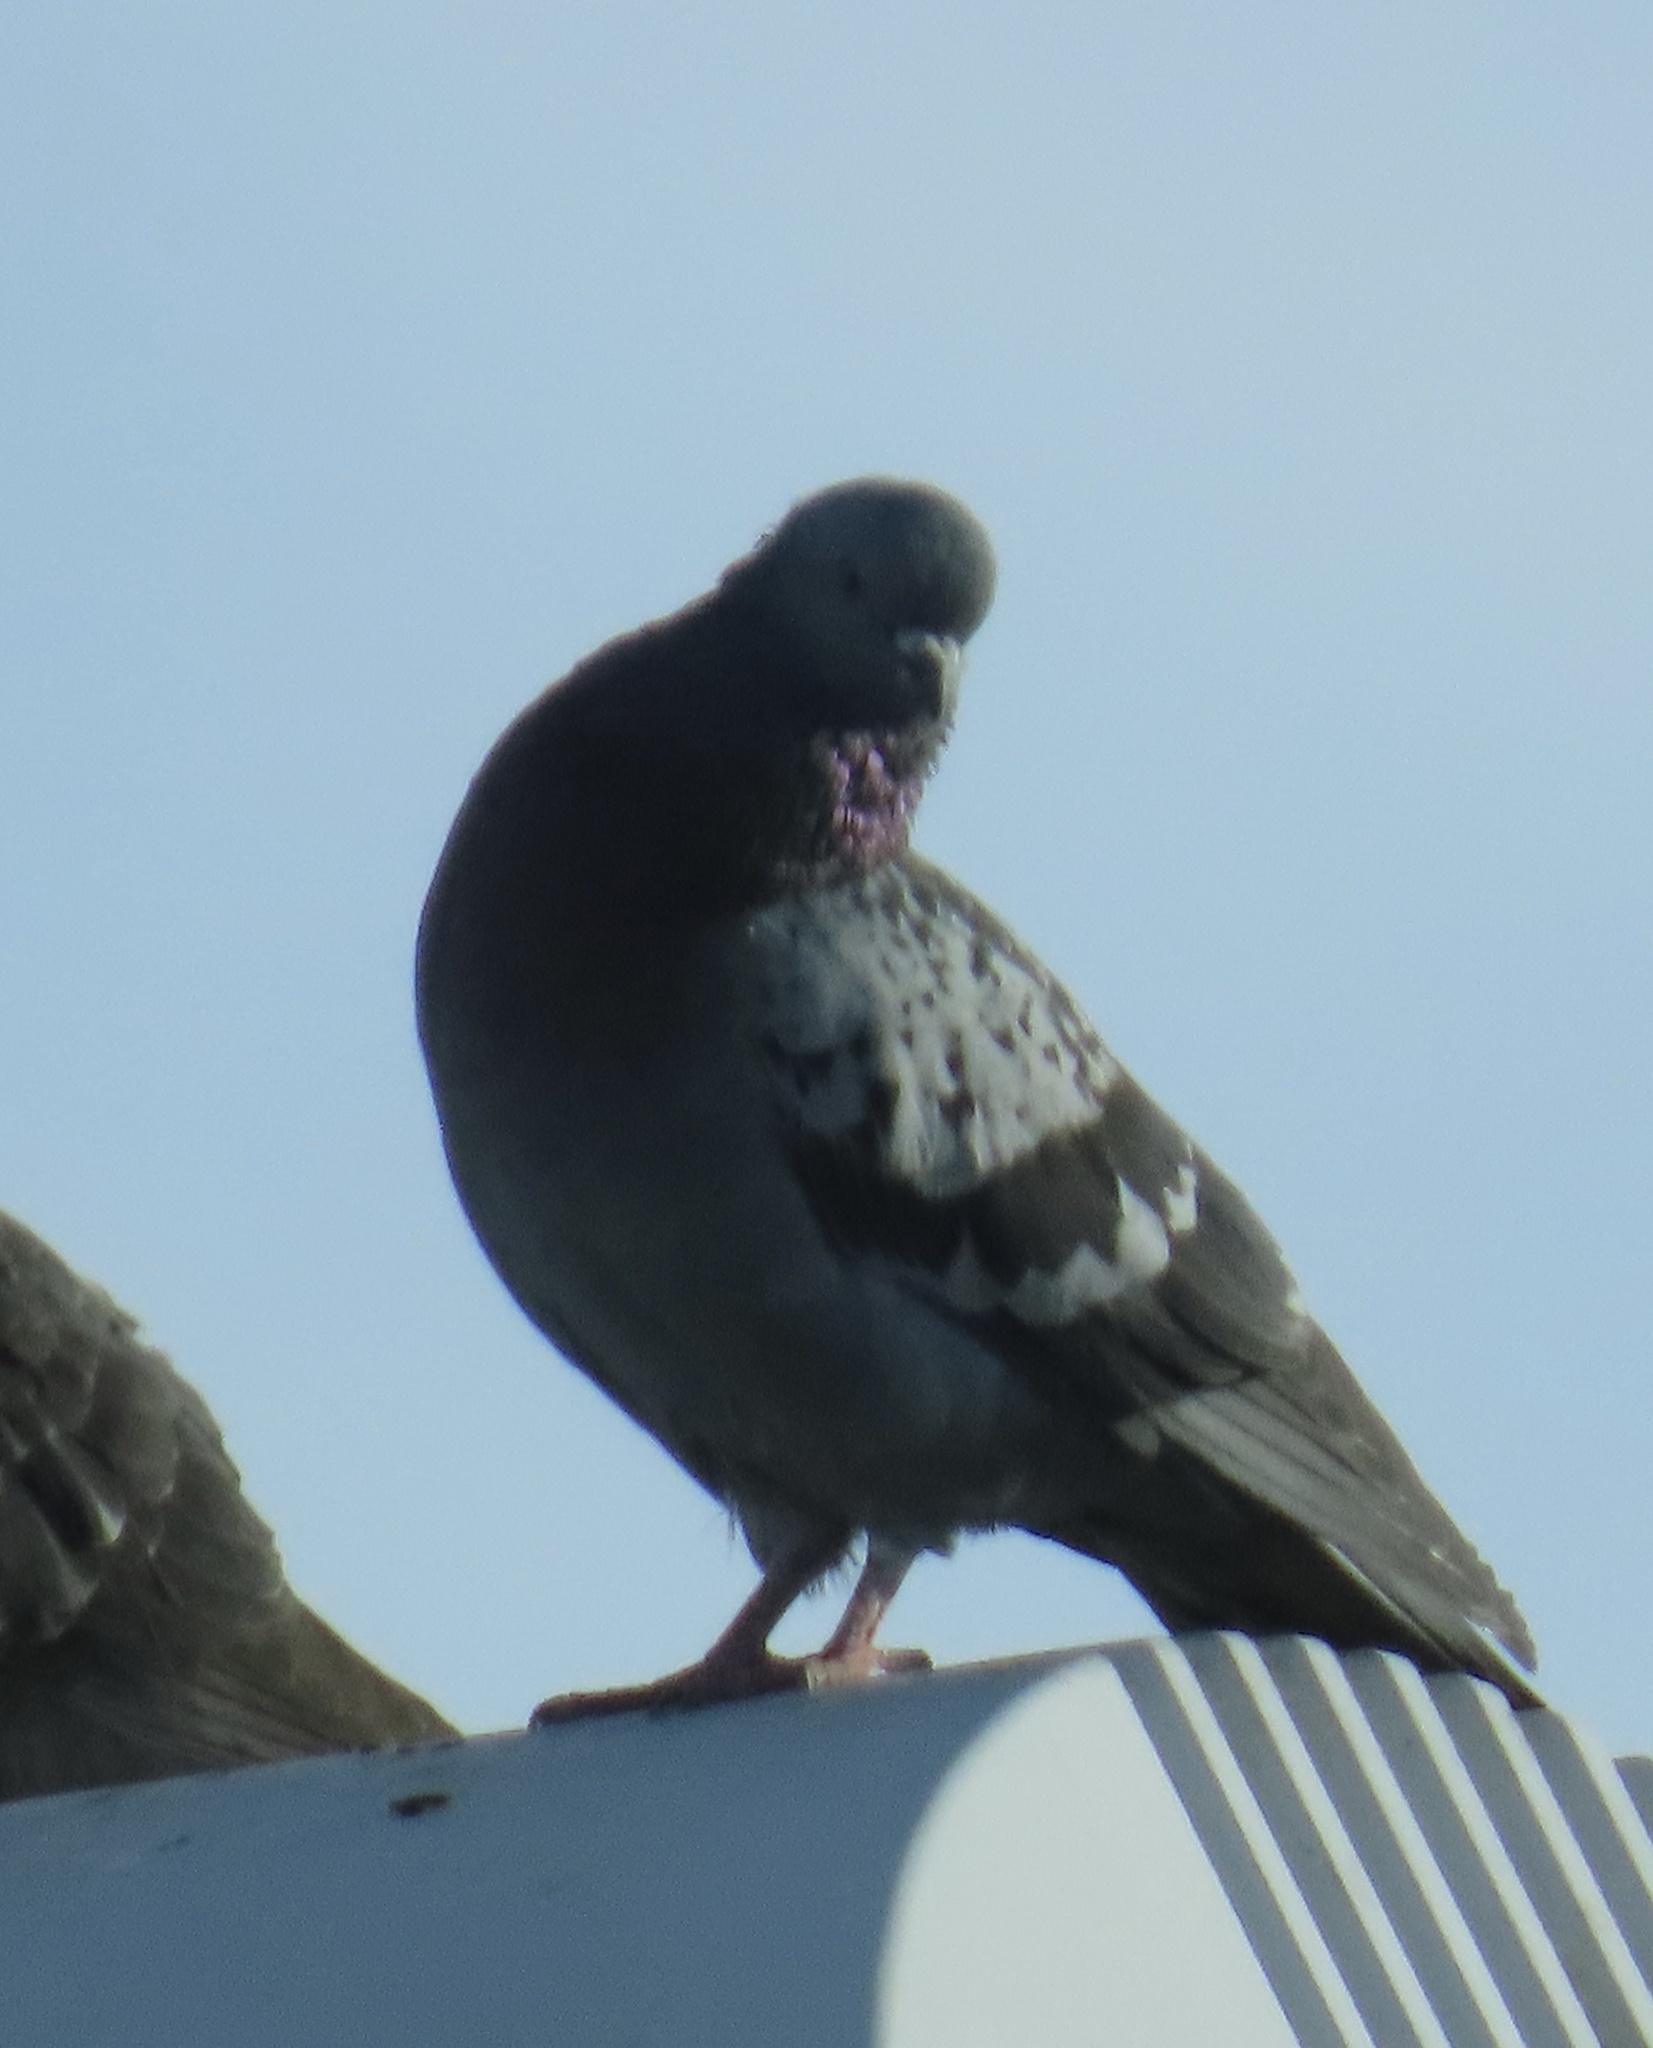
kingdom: Animalia
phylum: Chordata
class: Aves
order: Columbiformes
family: Columbidae
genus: Columba
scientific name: Columba livia
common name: Rock pigeon
